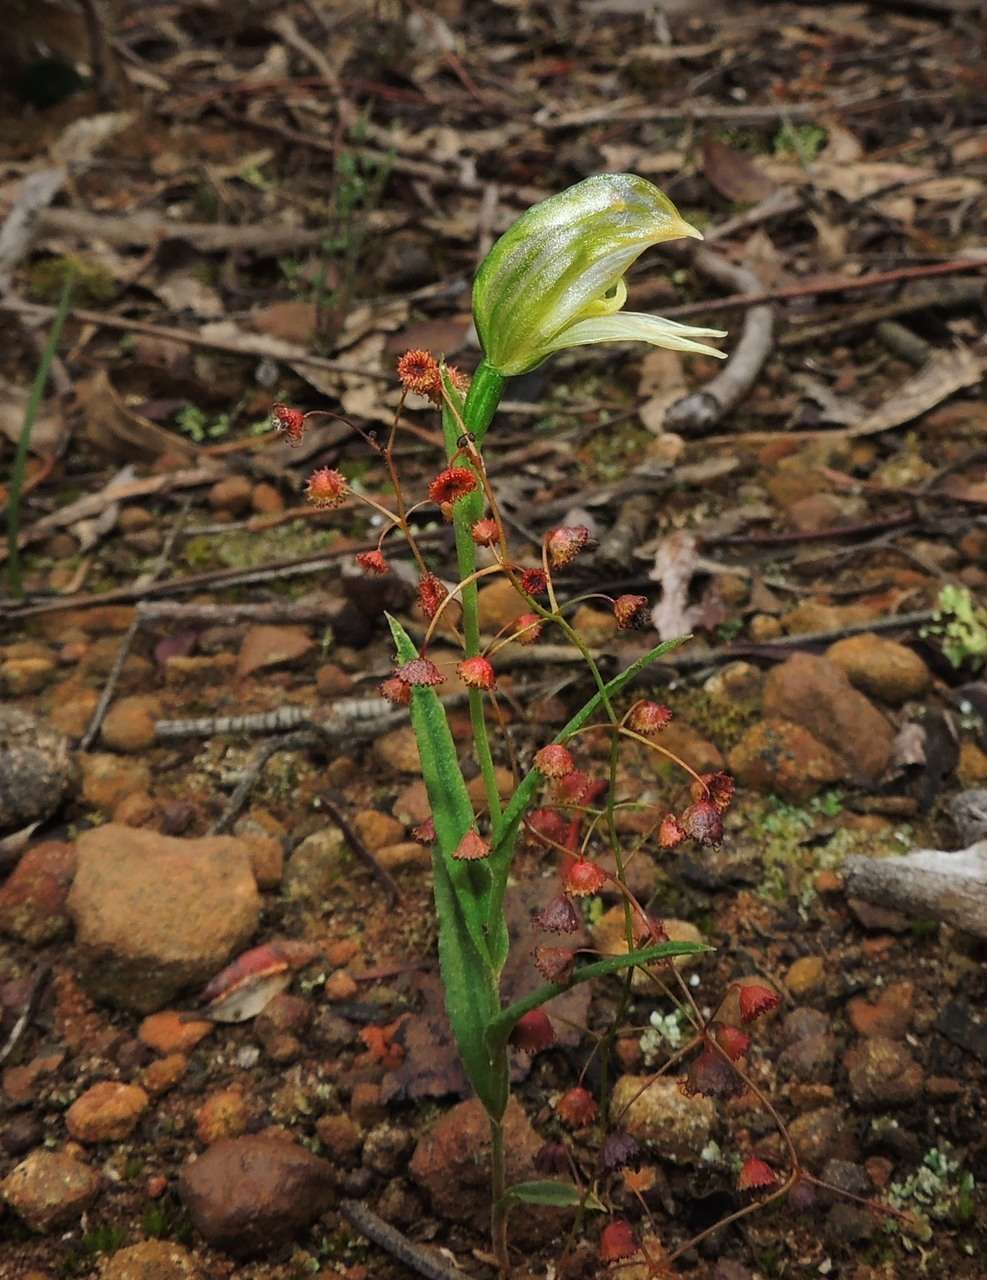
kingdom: Plantae
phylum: Tracheophyta
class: Liliopsida
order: Asparagales
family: Orchidaceae
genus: Pterostylis
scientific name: Pterostylis smaragdyna
